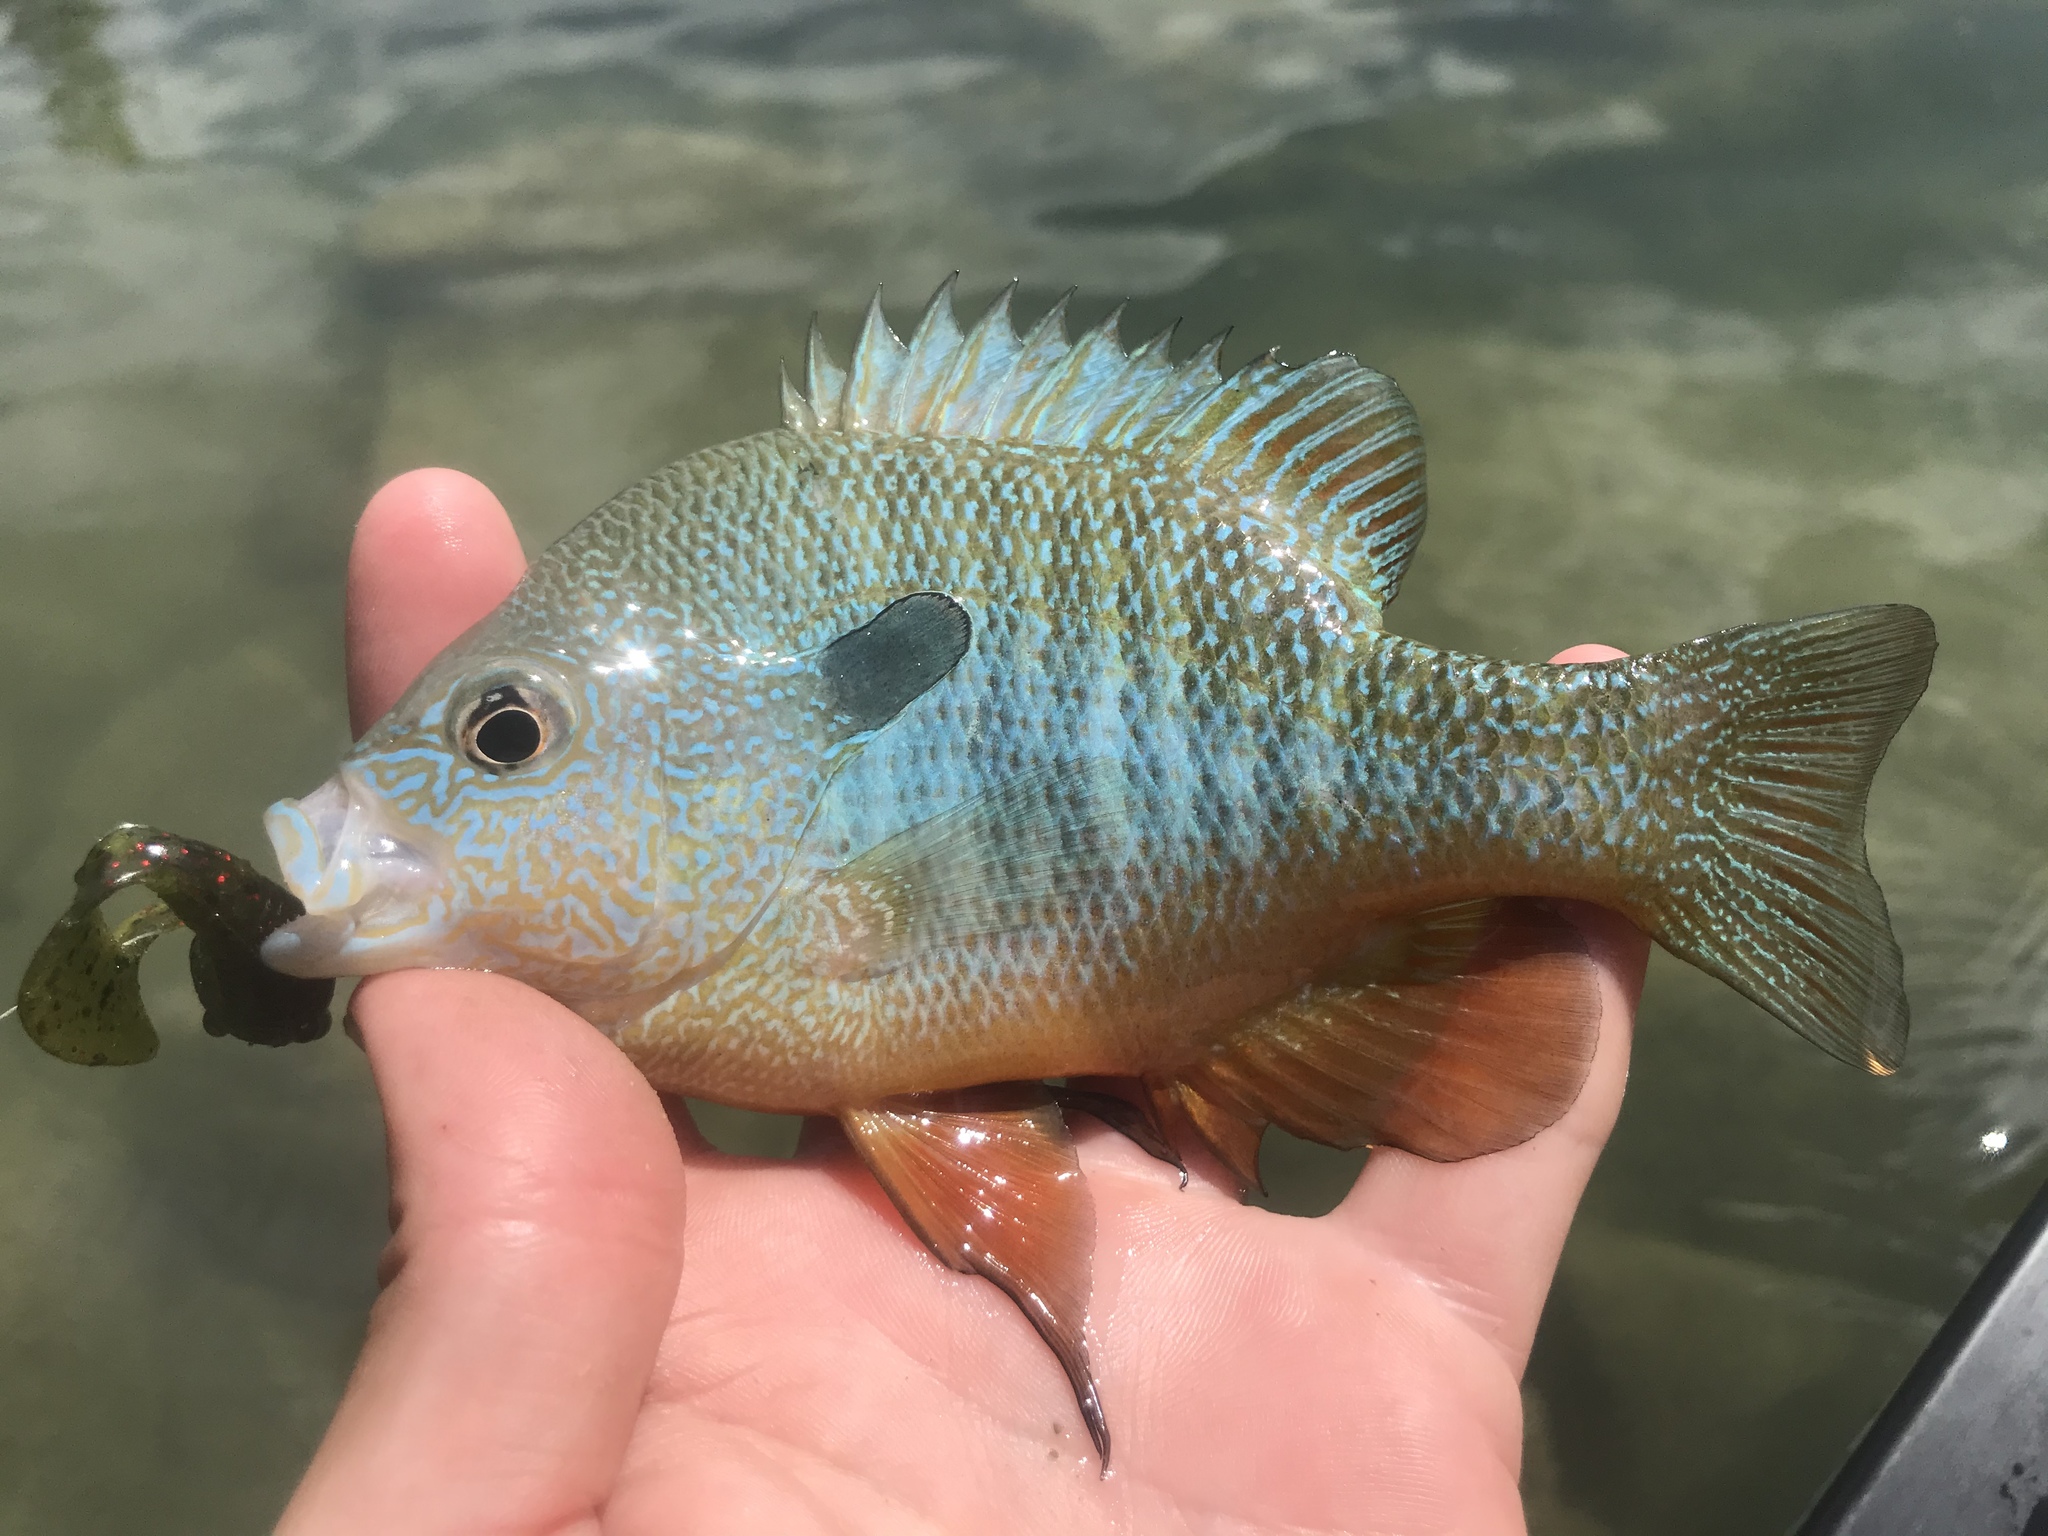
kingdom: Animalia
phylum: Chordata
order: Perciformes
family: Centrarchidae
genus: Lepomis
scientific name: Lepomis megalotis
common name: Longear sunfish
